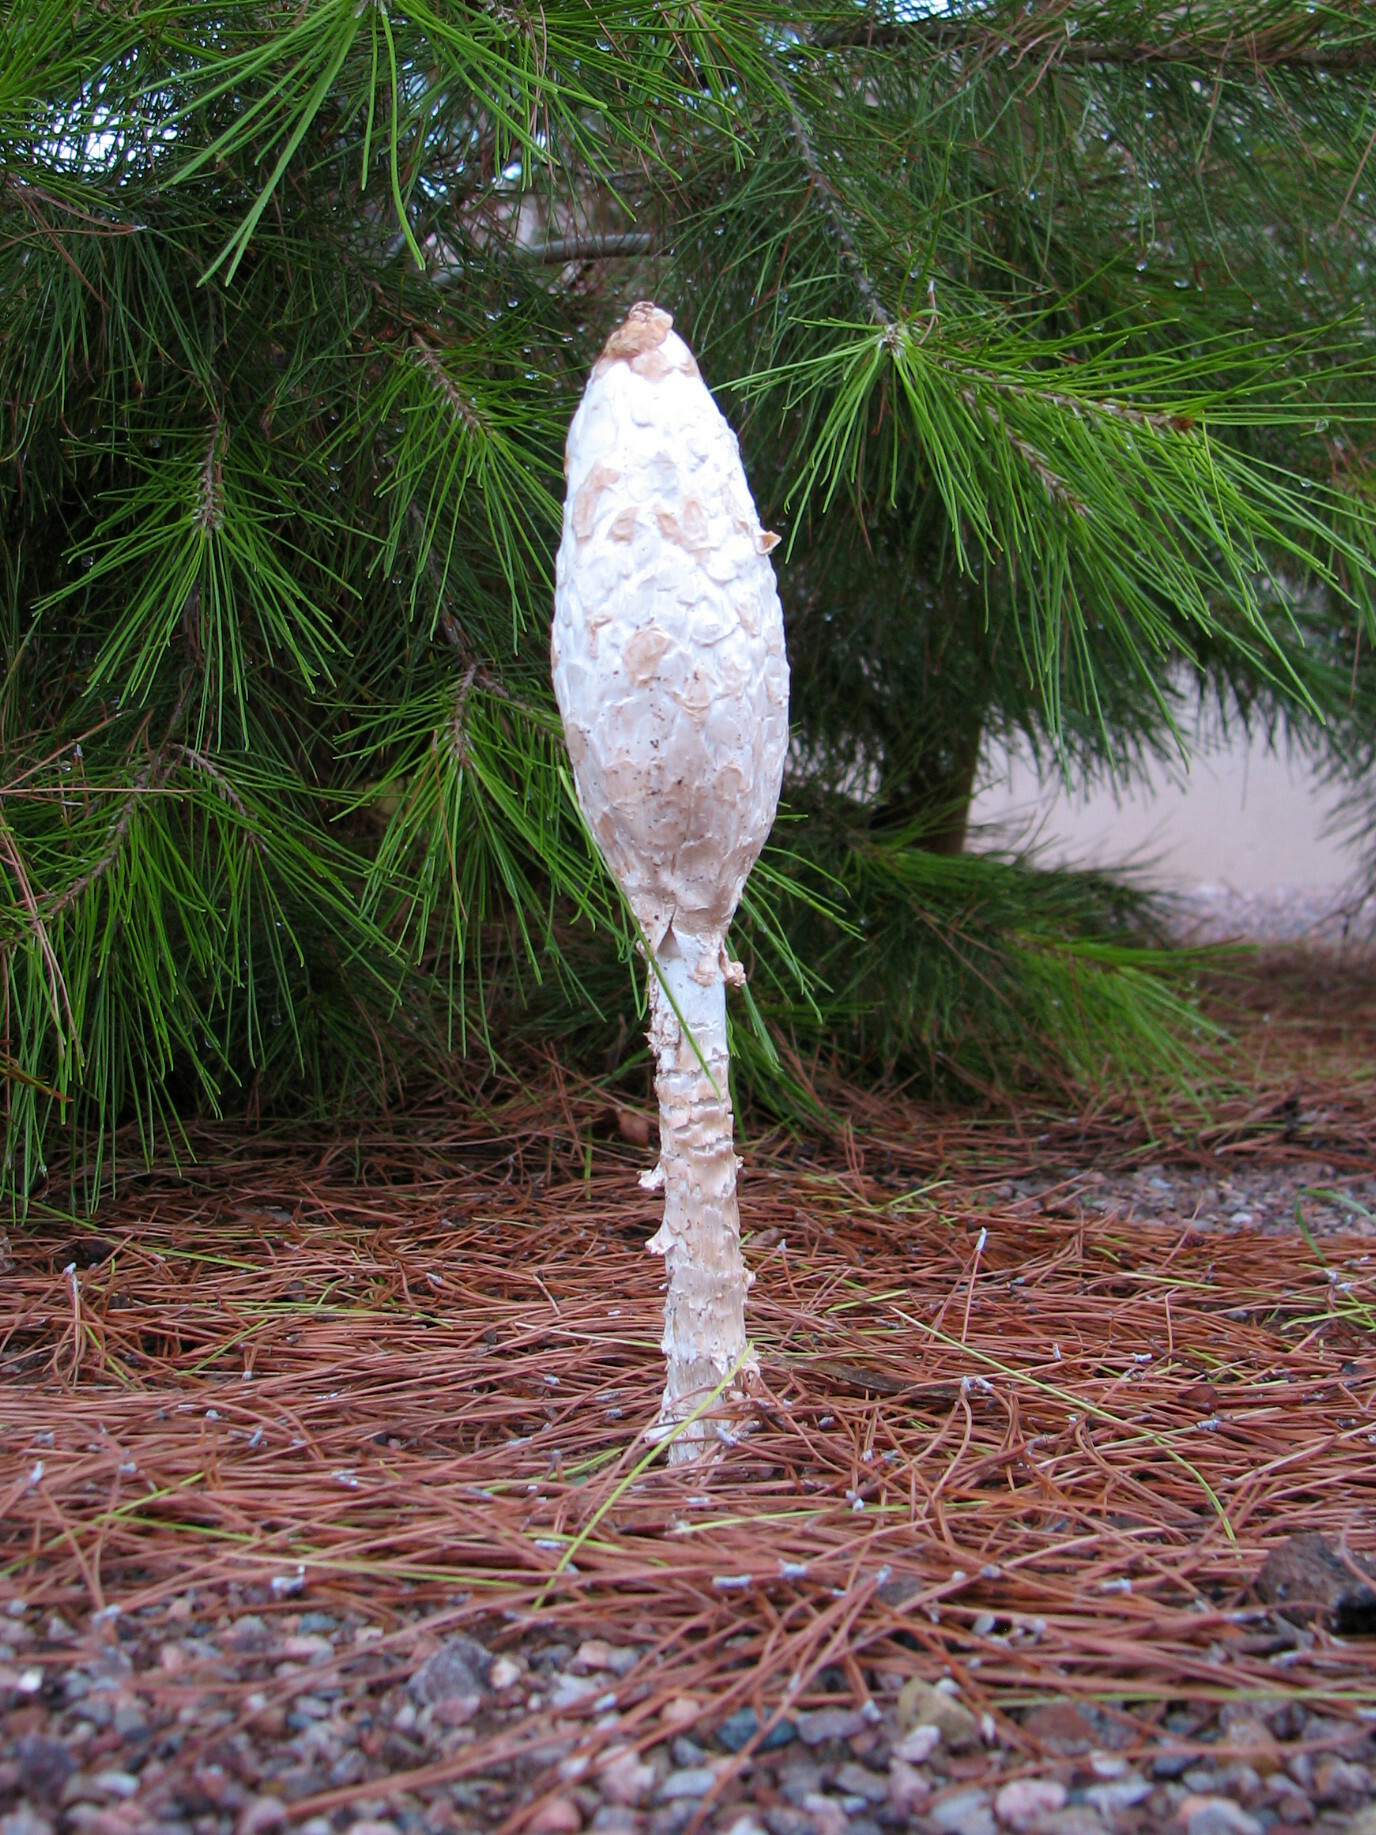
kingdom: Fungi
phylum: Basidiomycota
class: Agaricomycetes
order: Agaricales
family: Agaricaceae
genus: Podaxis
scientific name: Podaxis pistillaris
